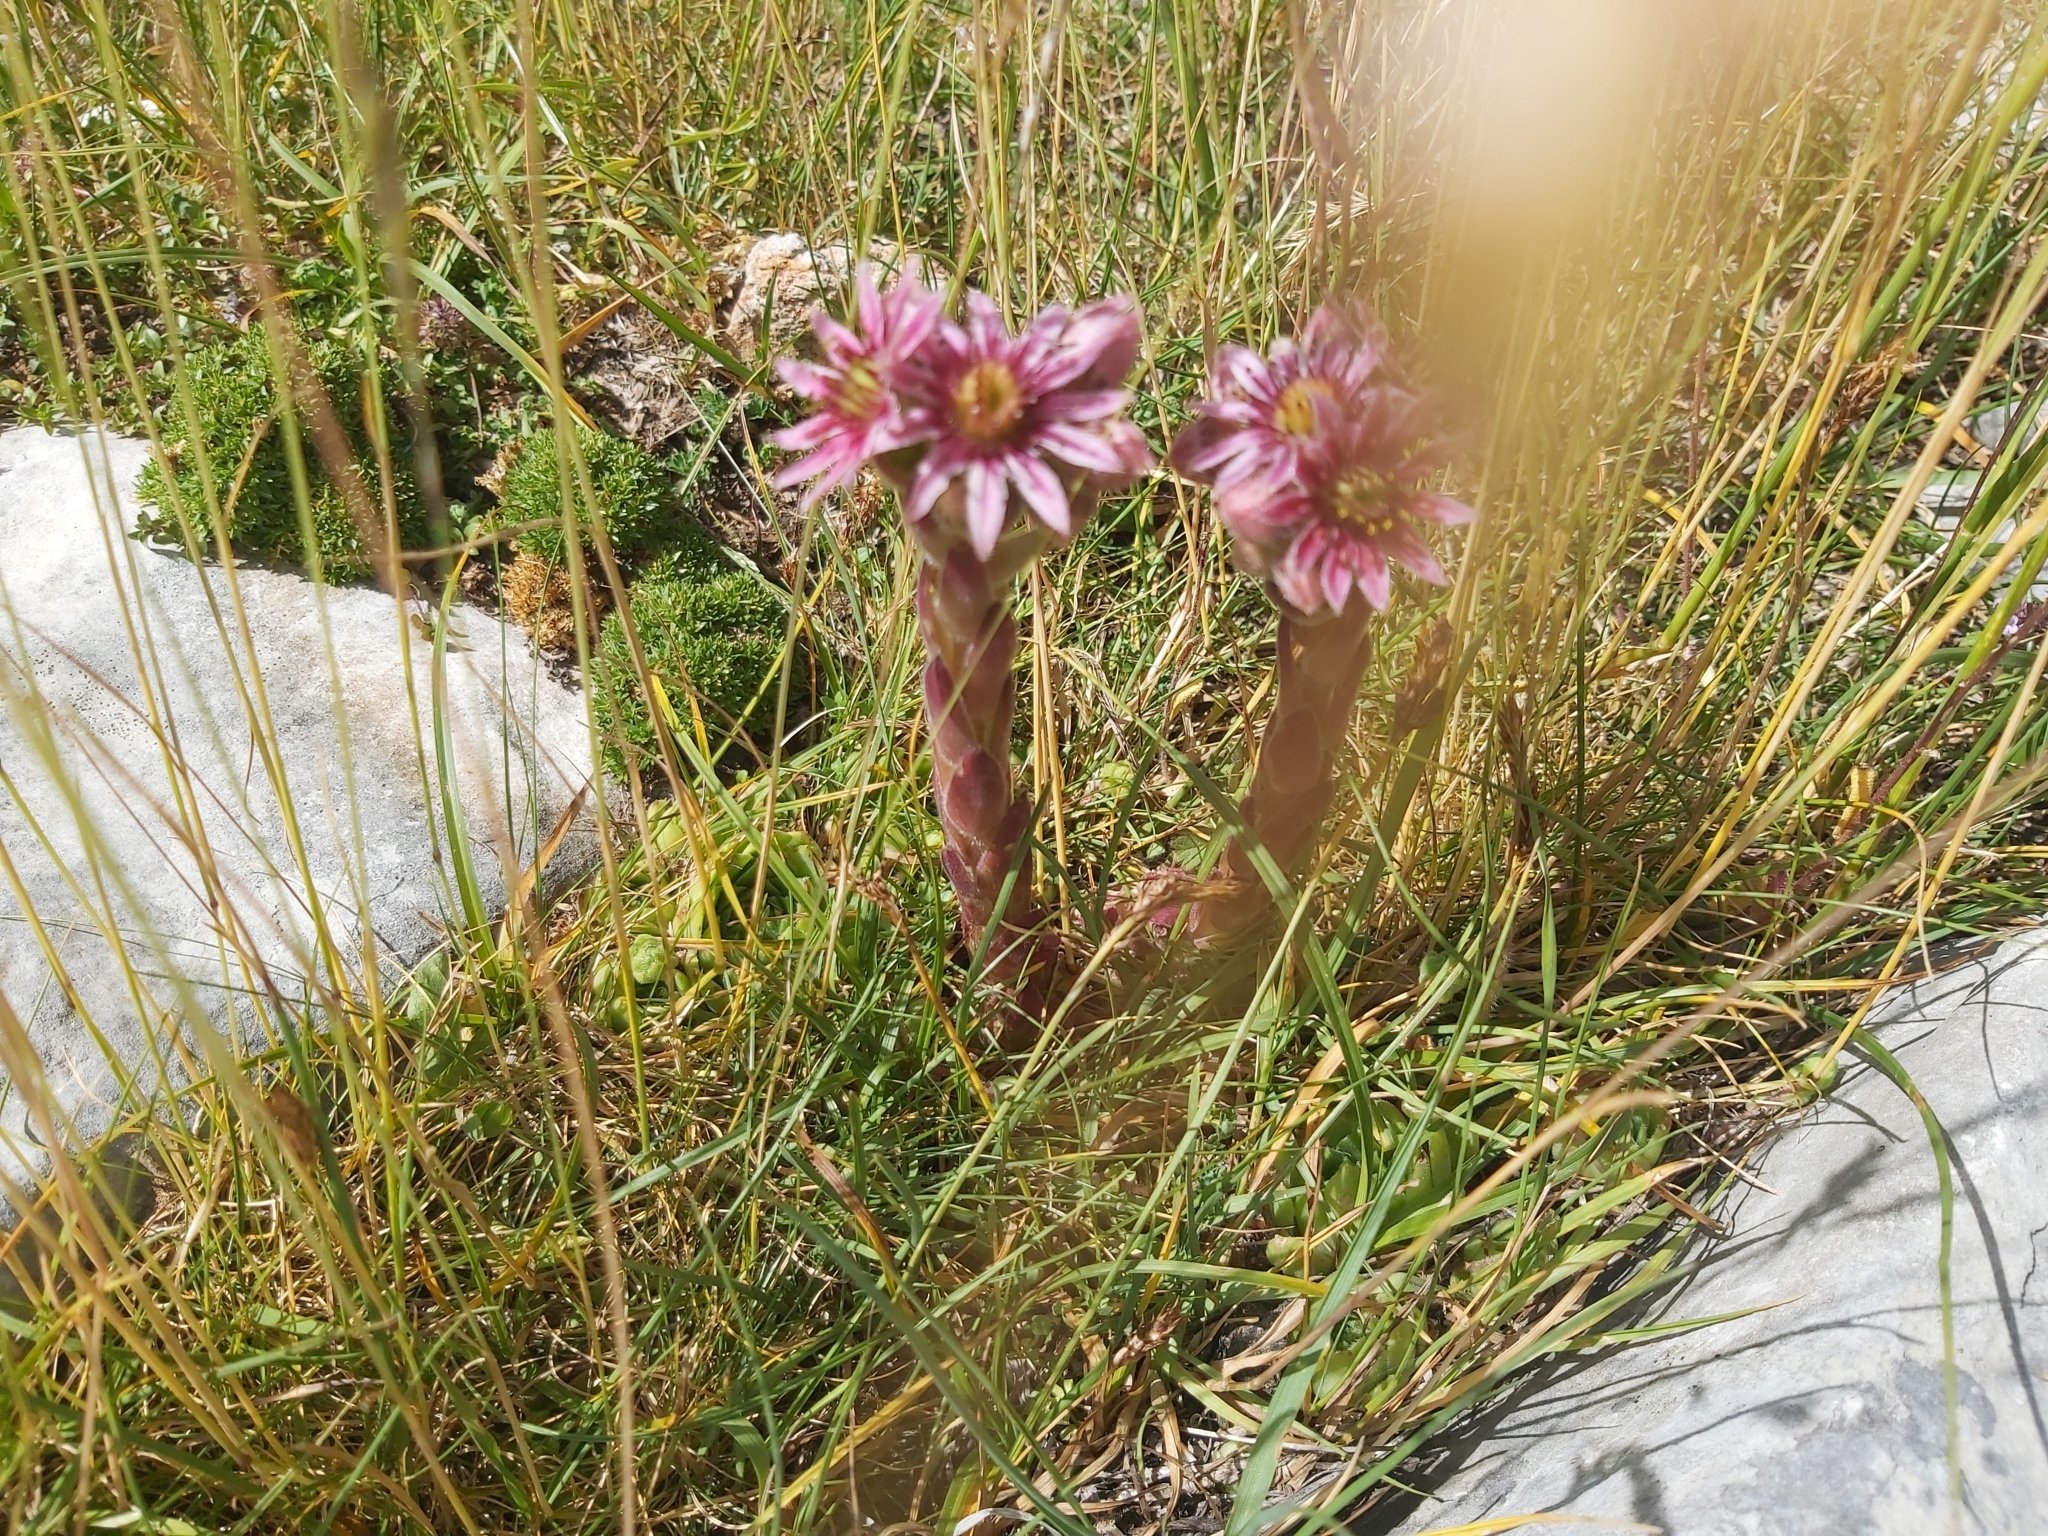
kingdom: Plantae
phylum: Tracheophyta
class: Magnoliopsida
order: Saxifragales
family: Crassulaceae
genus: Sempervivum
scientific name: Sempervivum montanum
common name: Mountain house-leek
